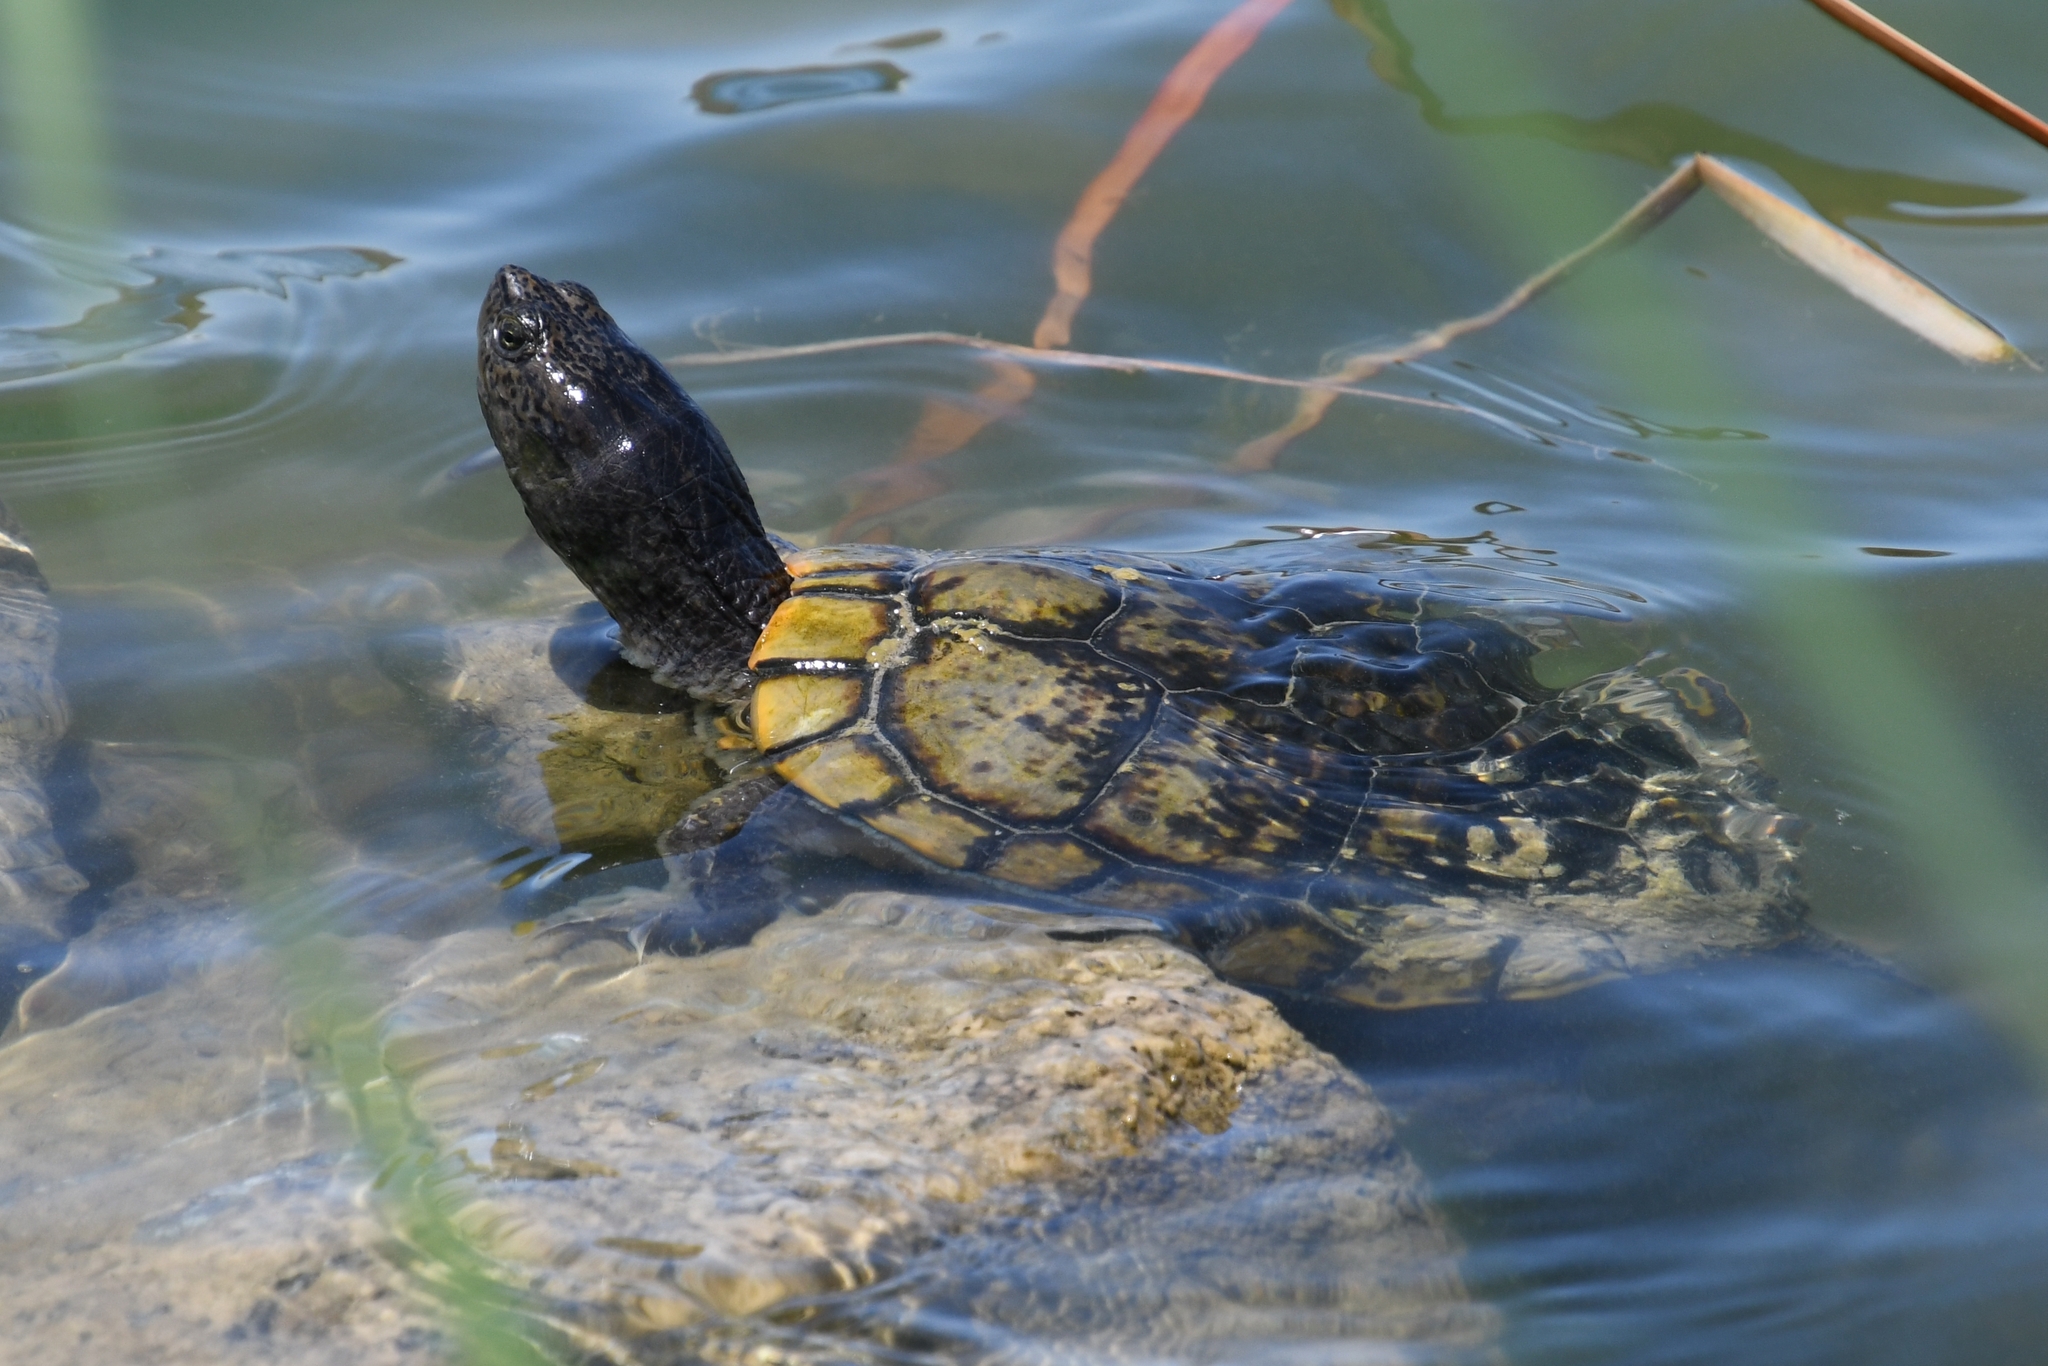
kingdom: Animalia
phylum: Chordata
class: Testudines
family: Emydidae
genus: Trachemys
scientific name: Trachemys scripta
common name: Slider
